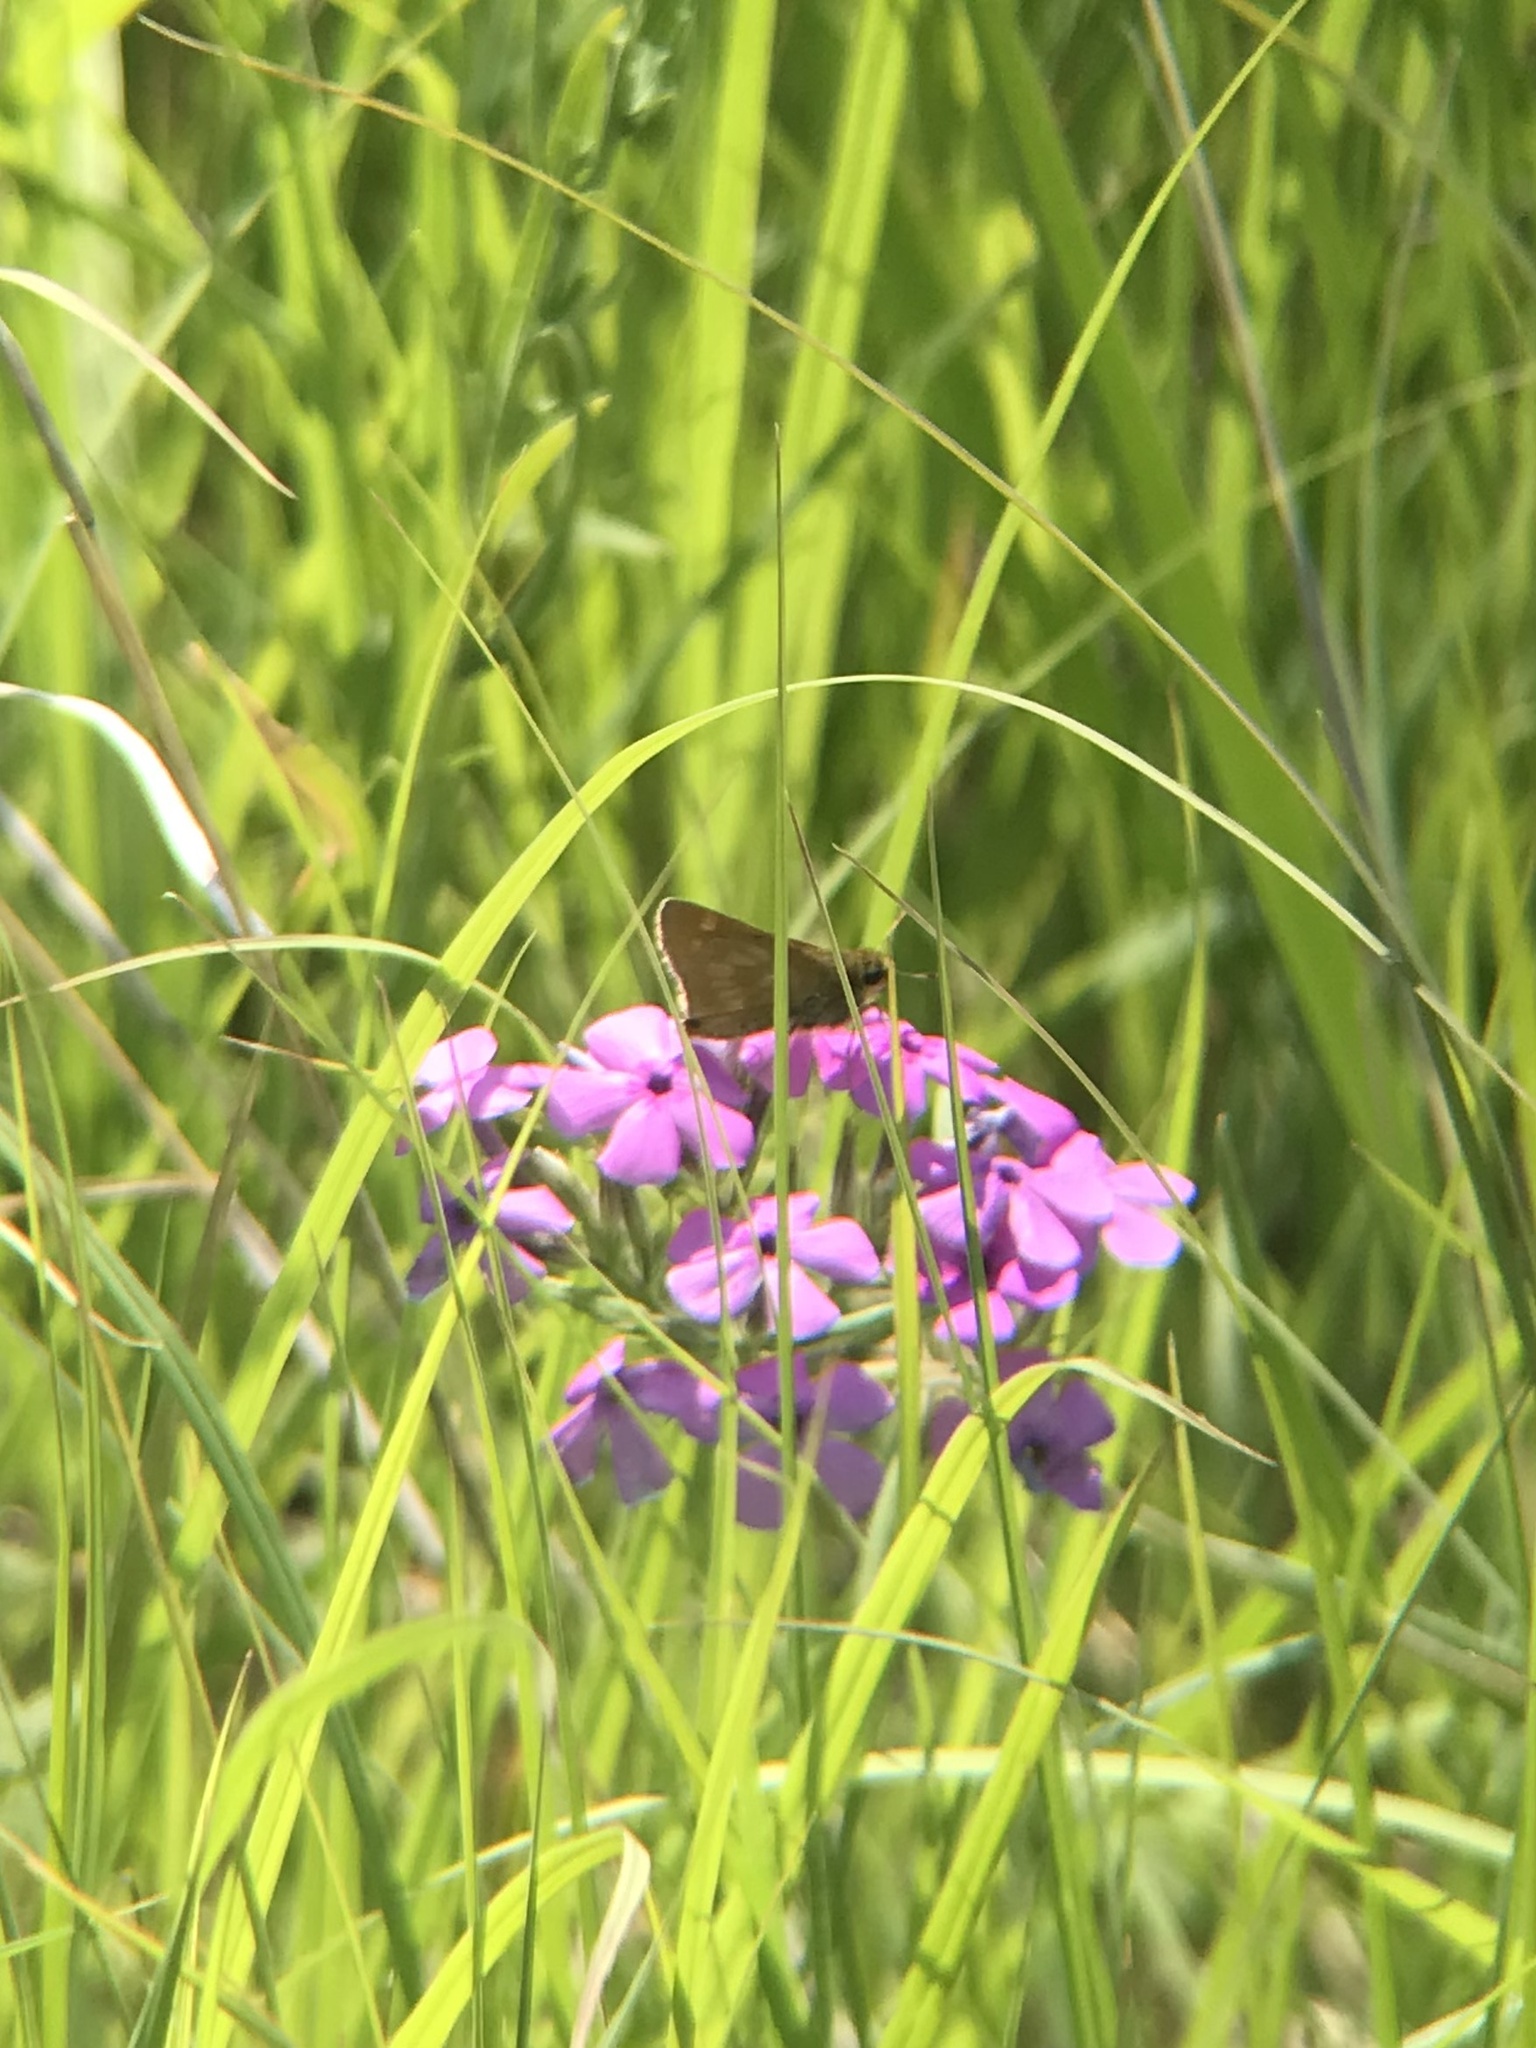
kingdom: Animalia
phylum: Arthropoda
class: Insecta
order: Lepidoptera
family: Hesperiidae
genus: Polites
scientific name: Polites mystic
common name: Long dash
